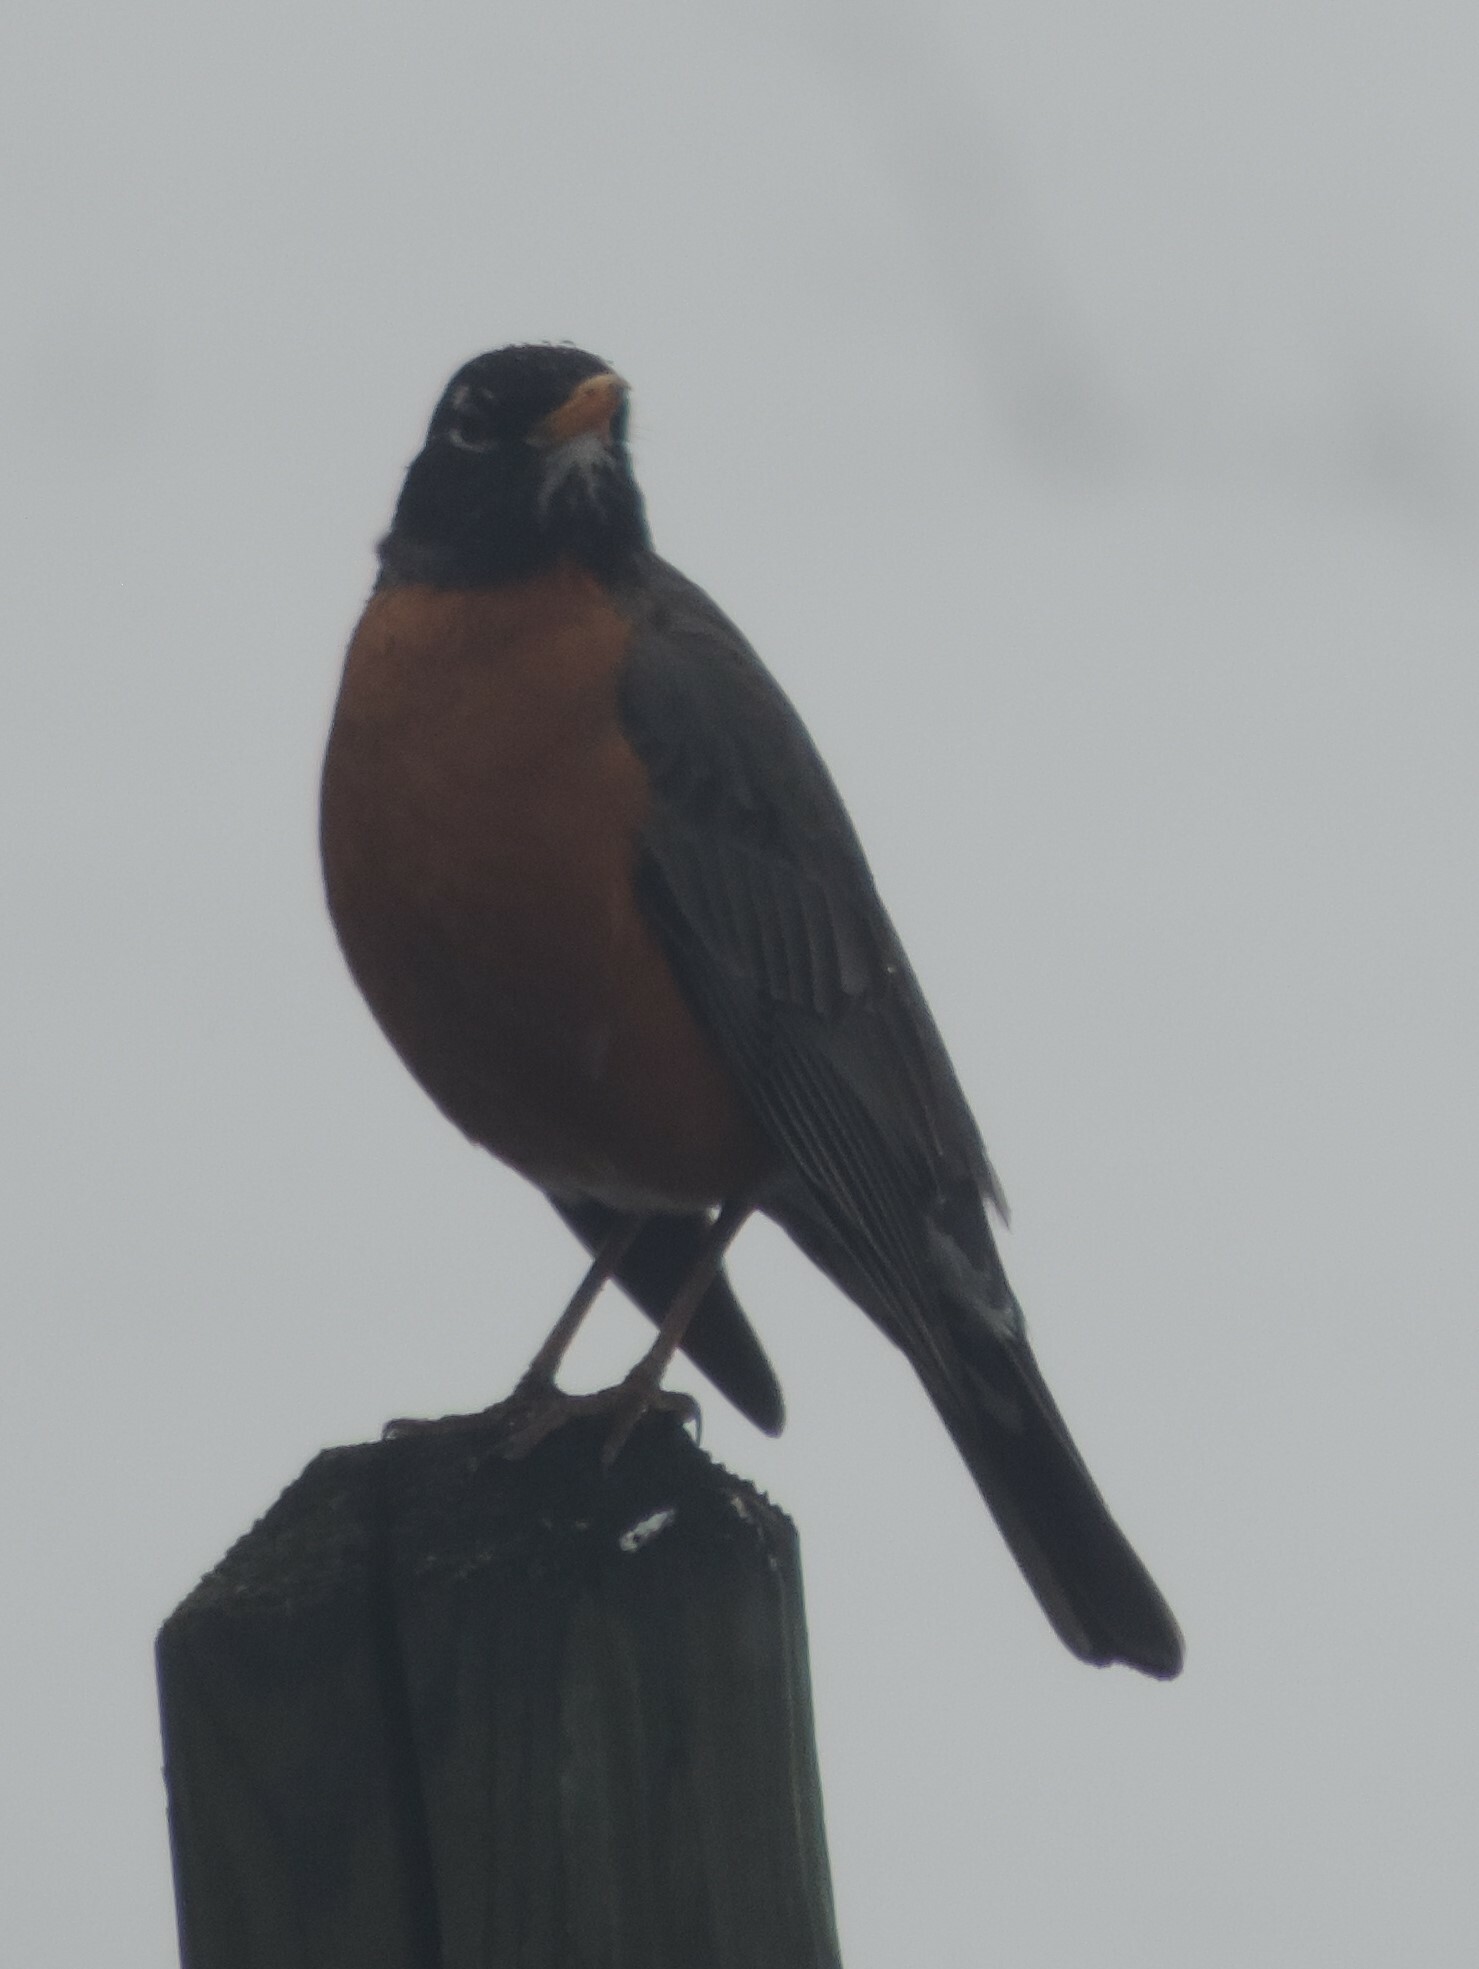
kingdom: Animalia
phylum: Chordata
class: Aves
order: Passeriformes
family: Turdidae
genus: Turdus
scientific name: Turdus migratorius
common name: American robin
